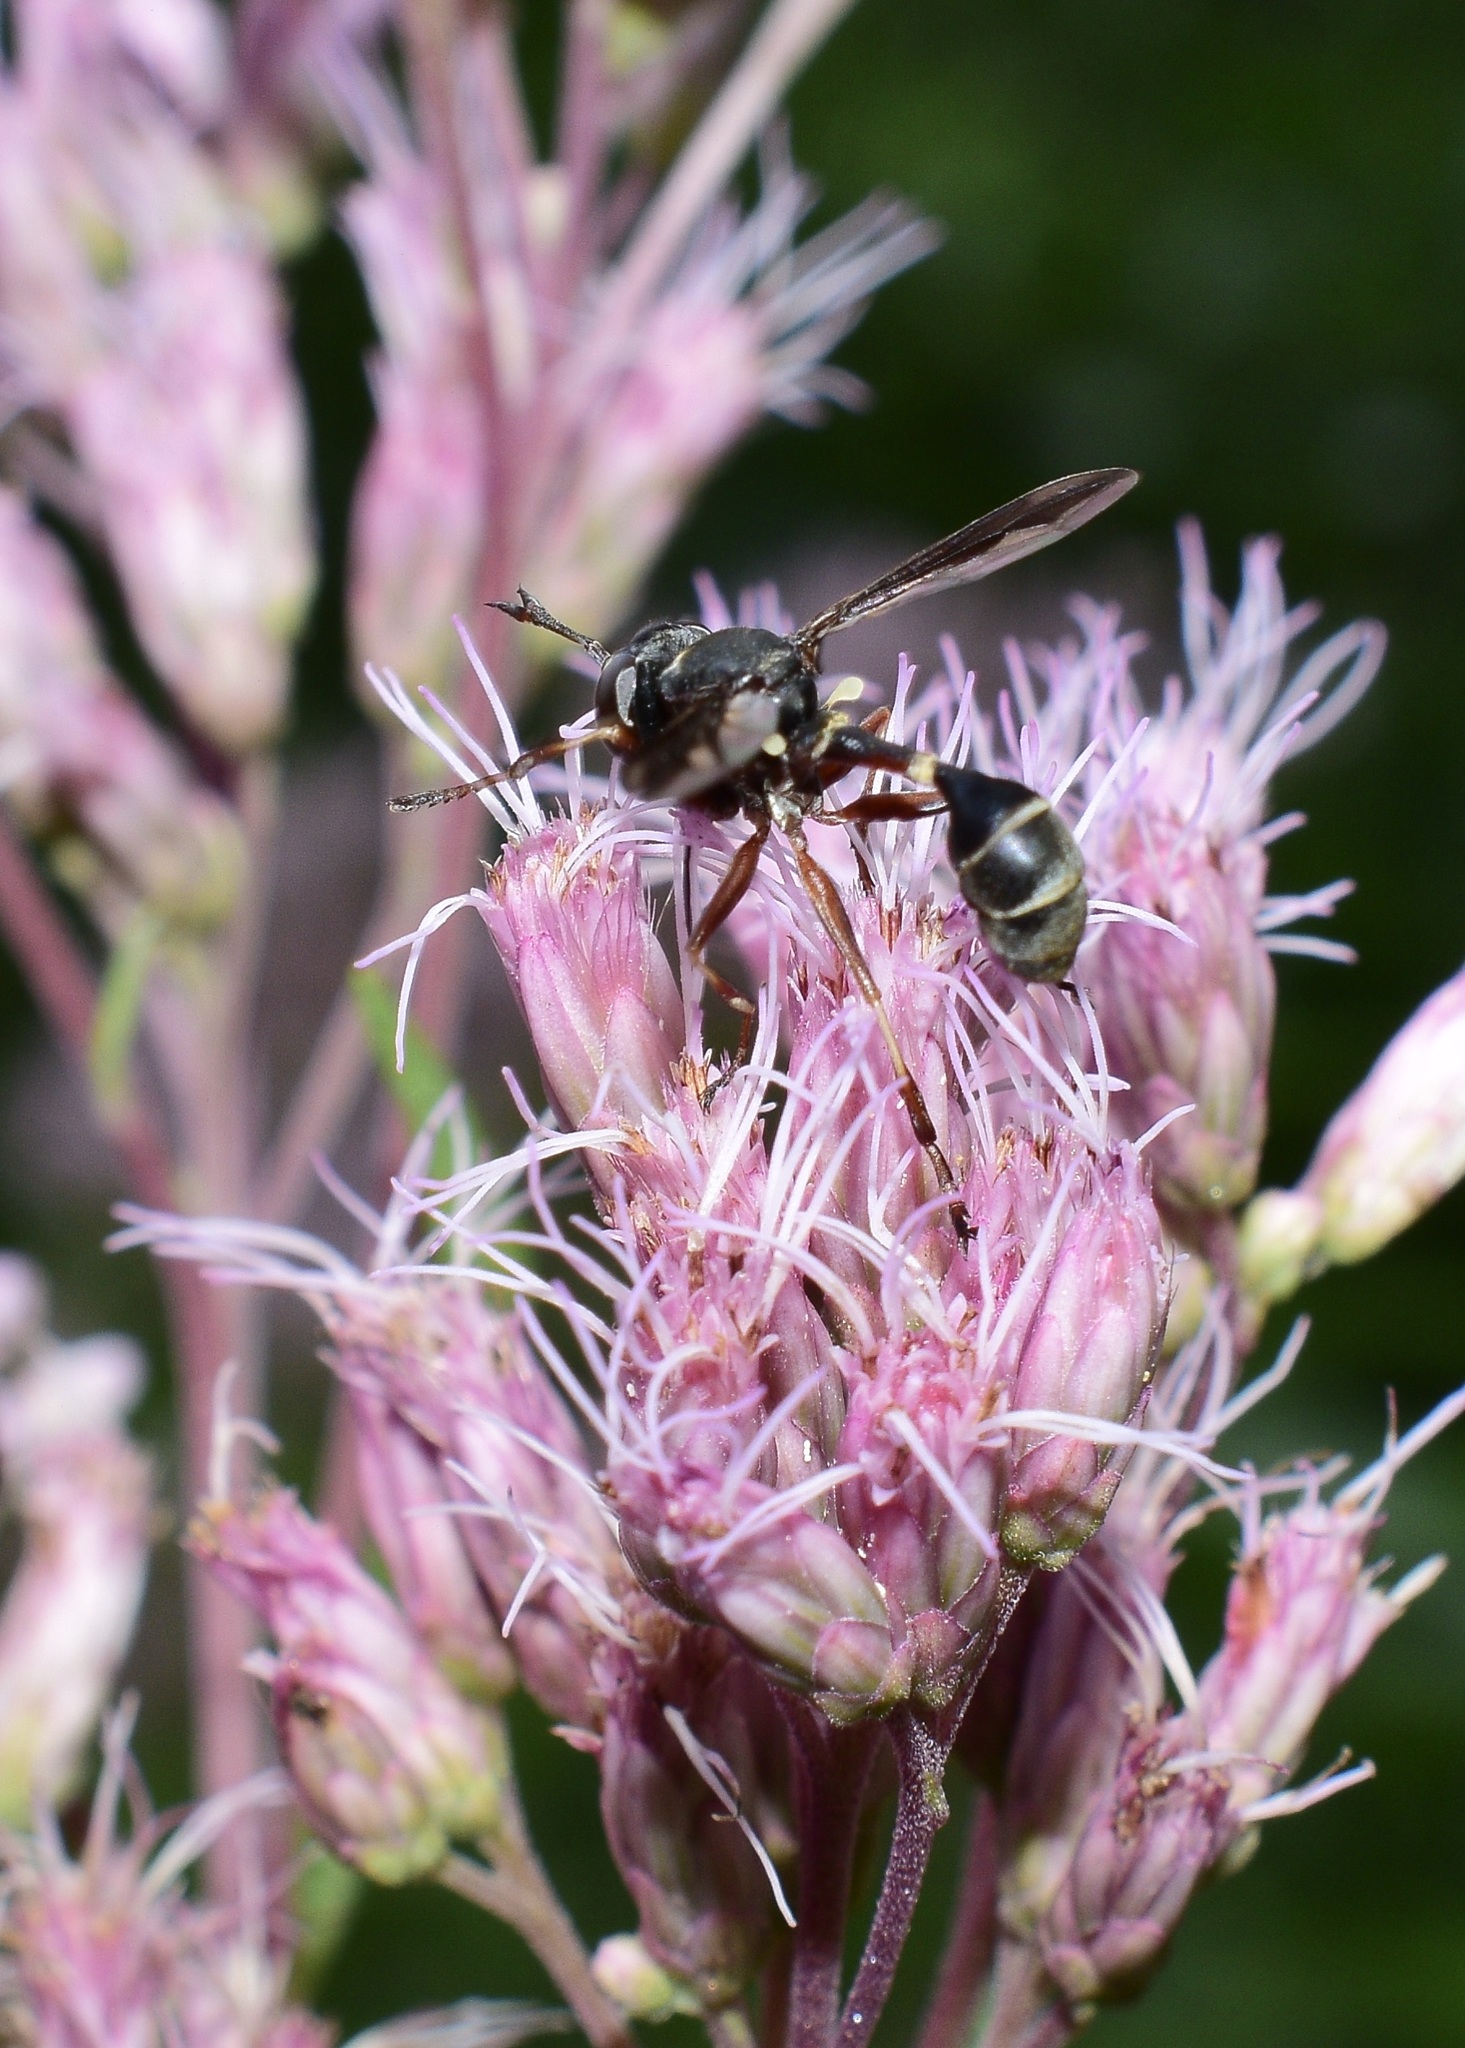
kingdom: Animalia
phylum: Arthropoda
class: Insecta
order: Diptera
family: Conopidae
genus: Physocephala
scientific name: Physocephala furcillata
